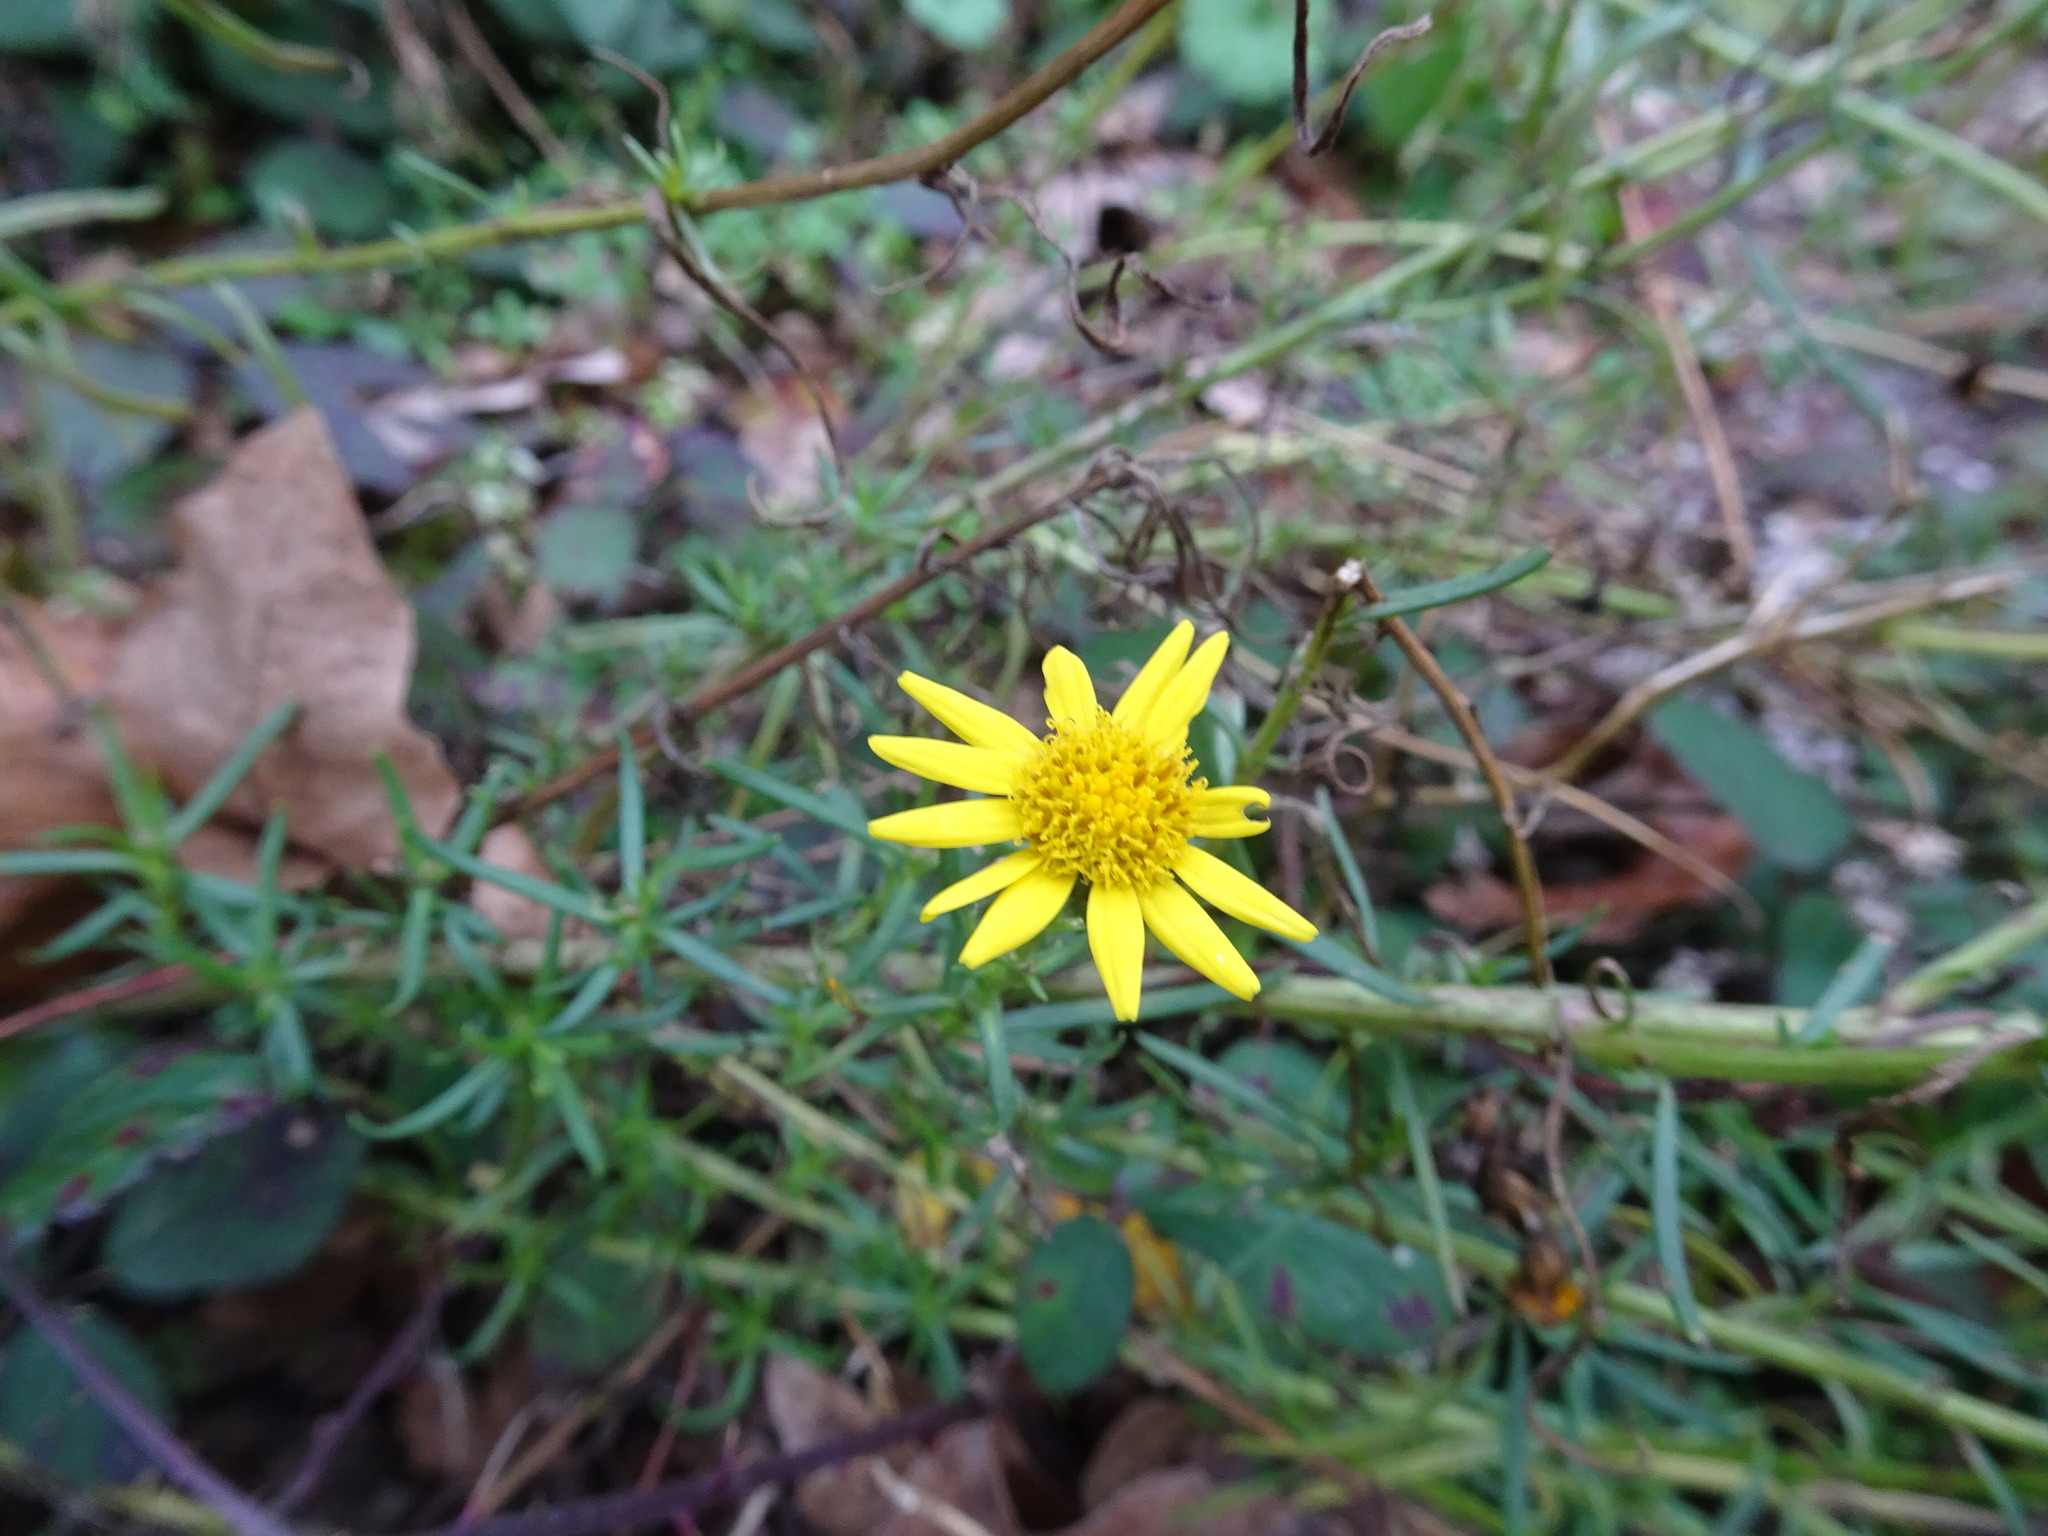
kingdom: Plantae
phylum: Tracheophyta
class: Magnoliopsida
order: Asterales
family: Asteraceae
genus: Senecio
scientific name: Senecio inaequidens
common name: Narrow-leaved ragwort
